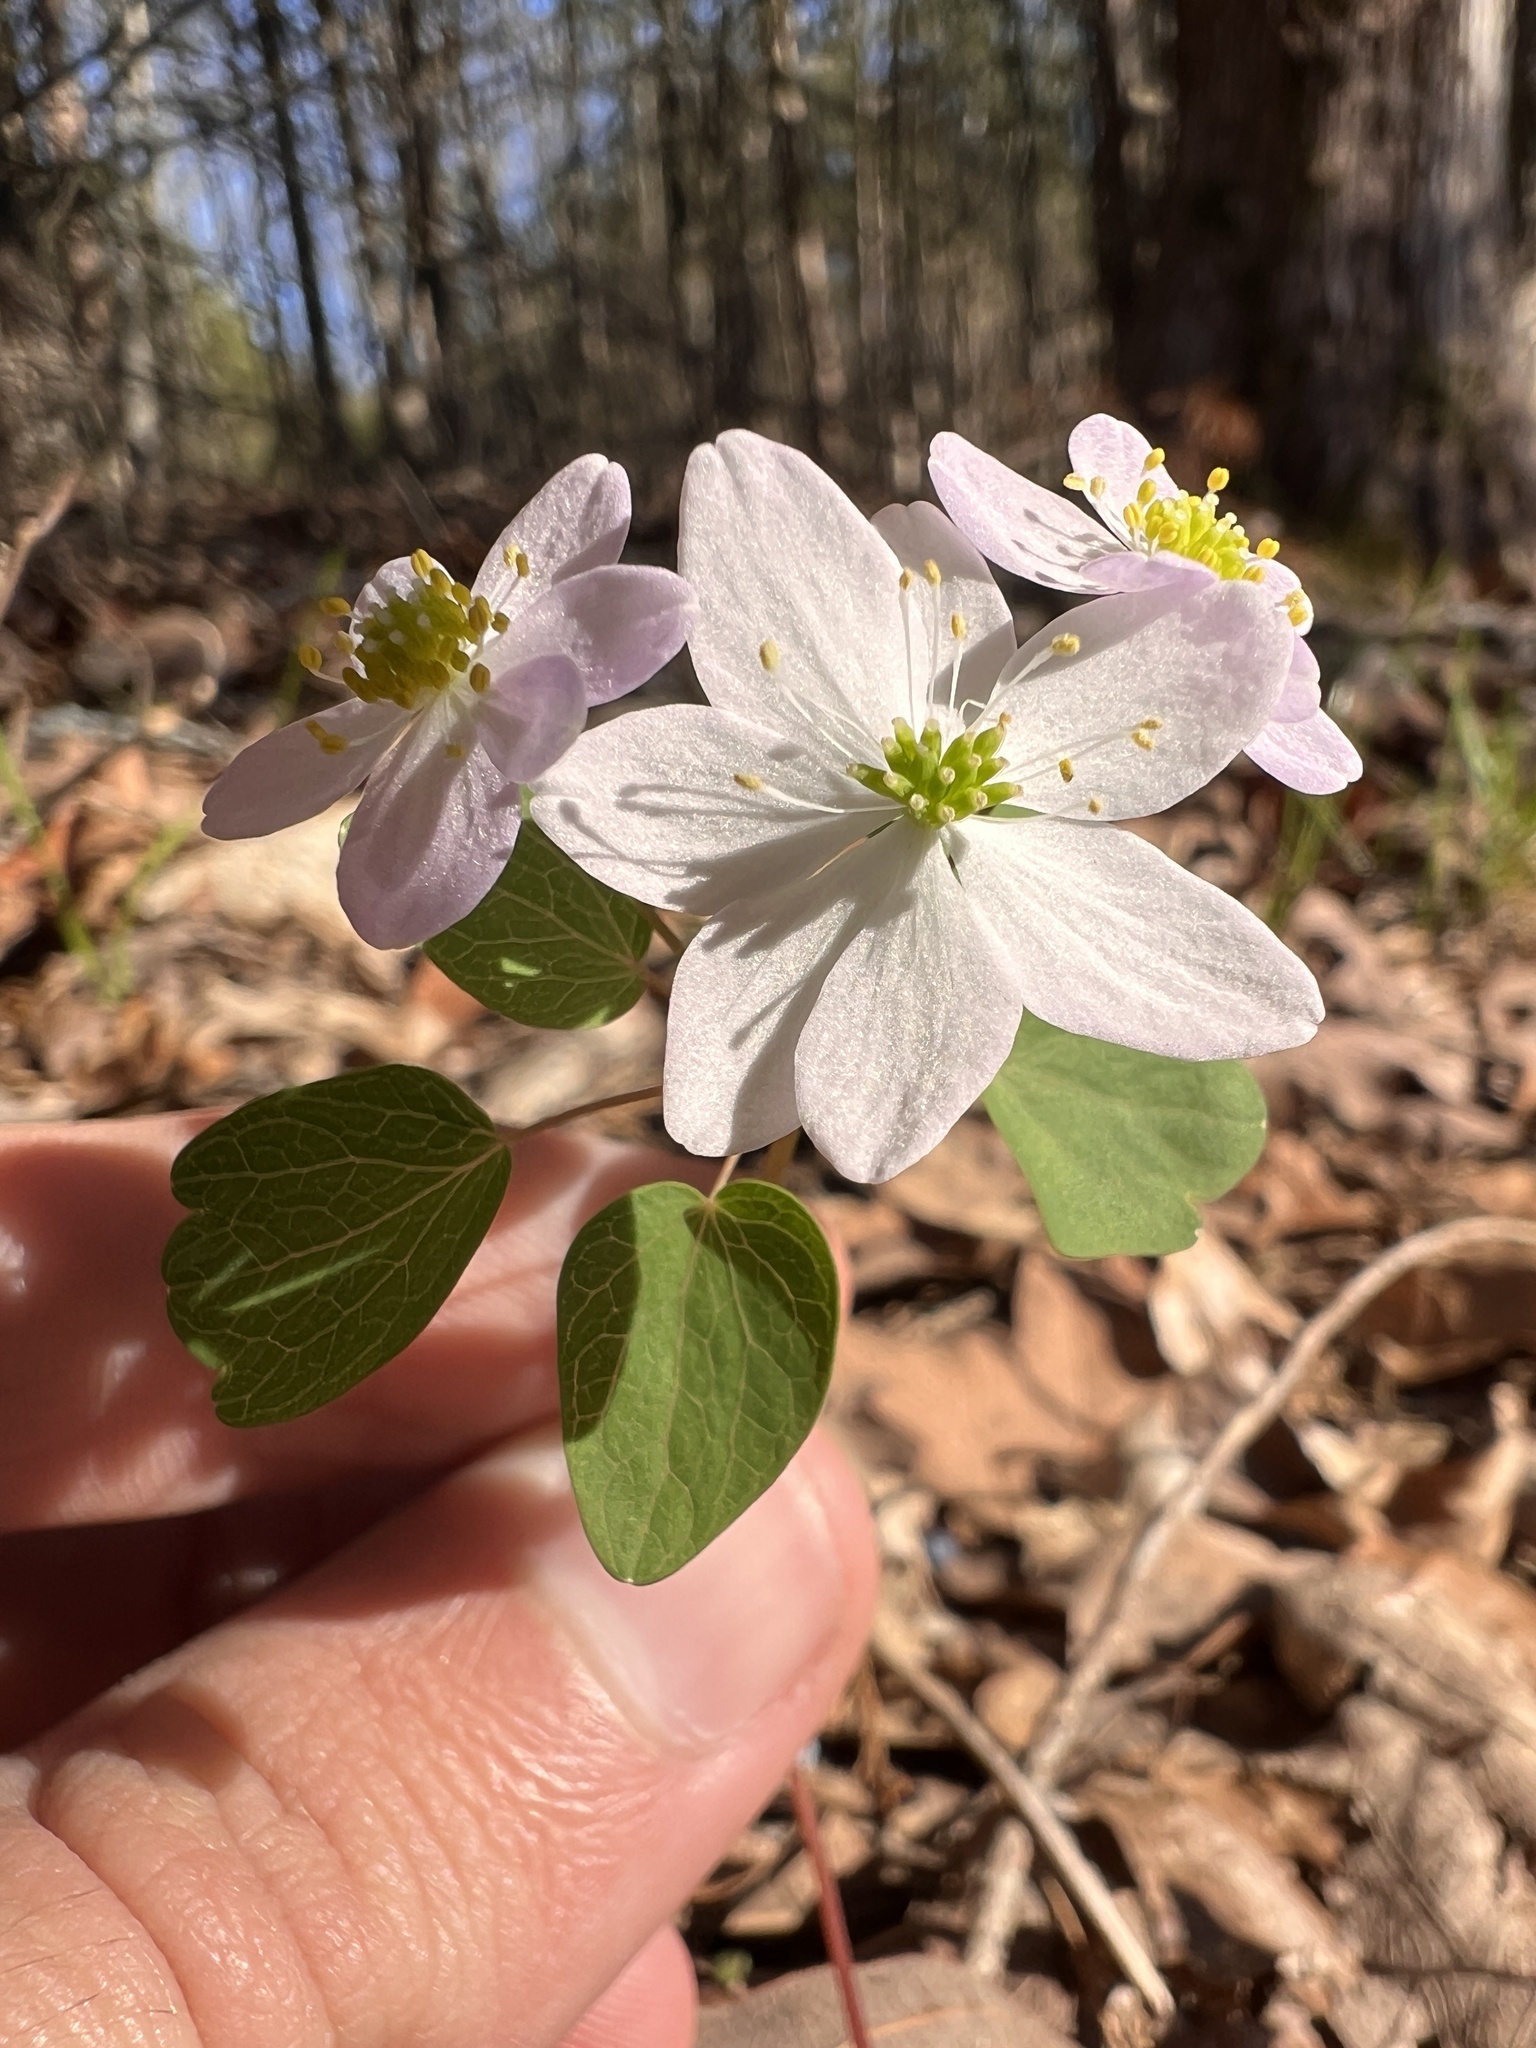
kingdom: Plantae
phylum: Tracheophyta
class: Magnoliopsida
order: Ranunculales
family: Ranunculaceae
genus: Thalictrum
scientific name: Thalictrum thalictroides
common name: Rue-anemone
